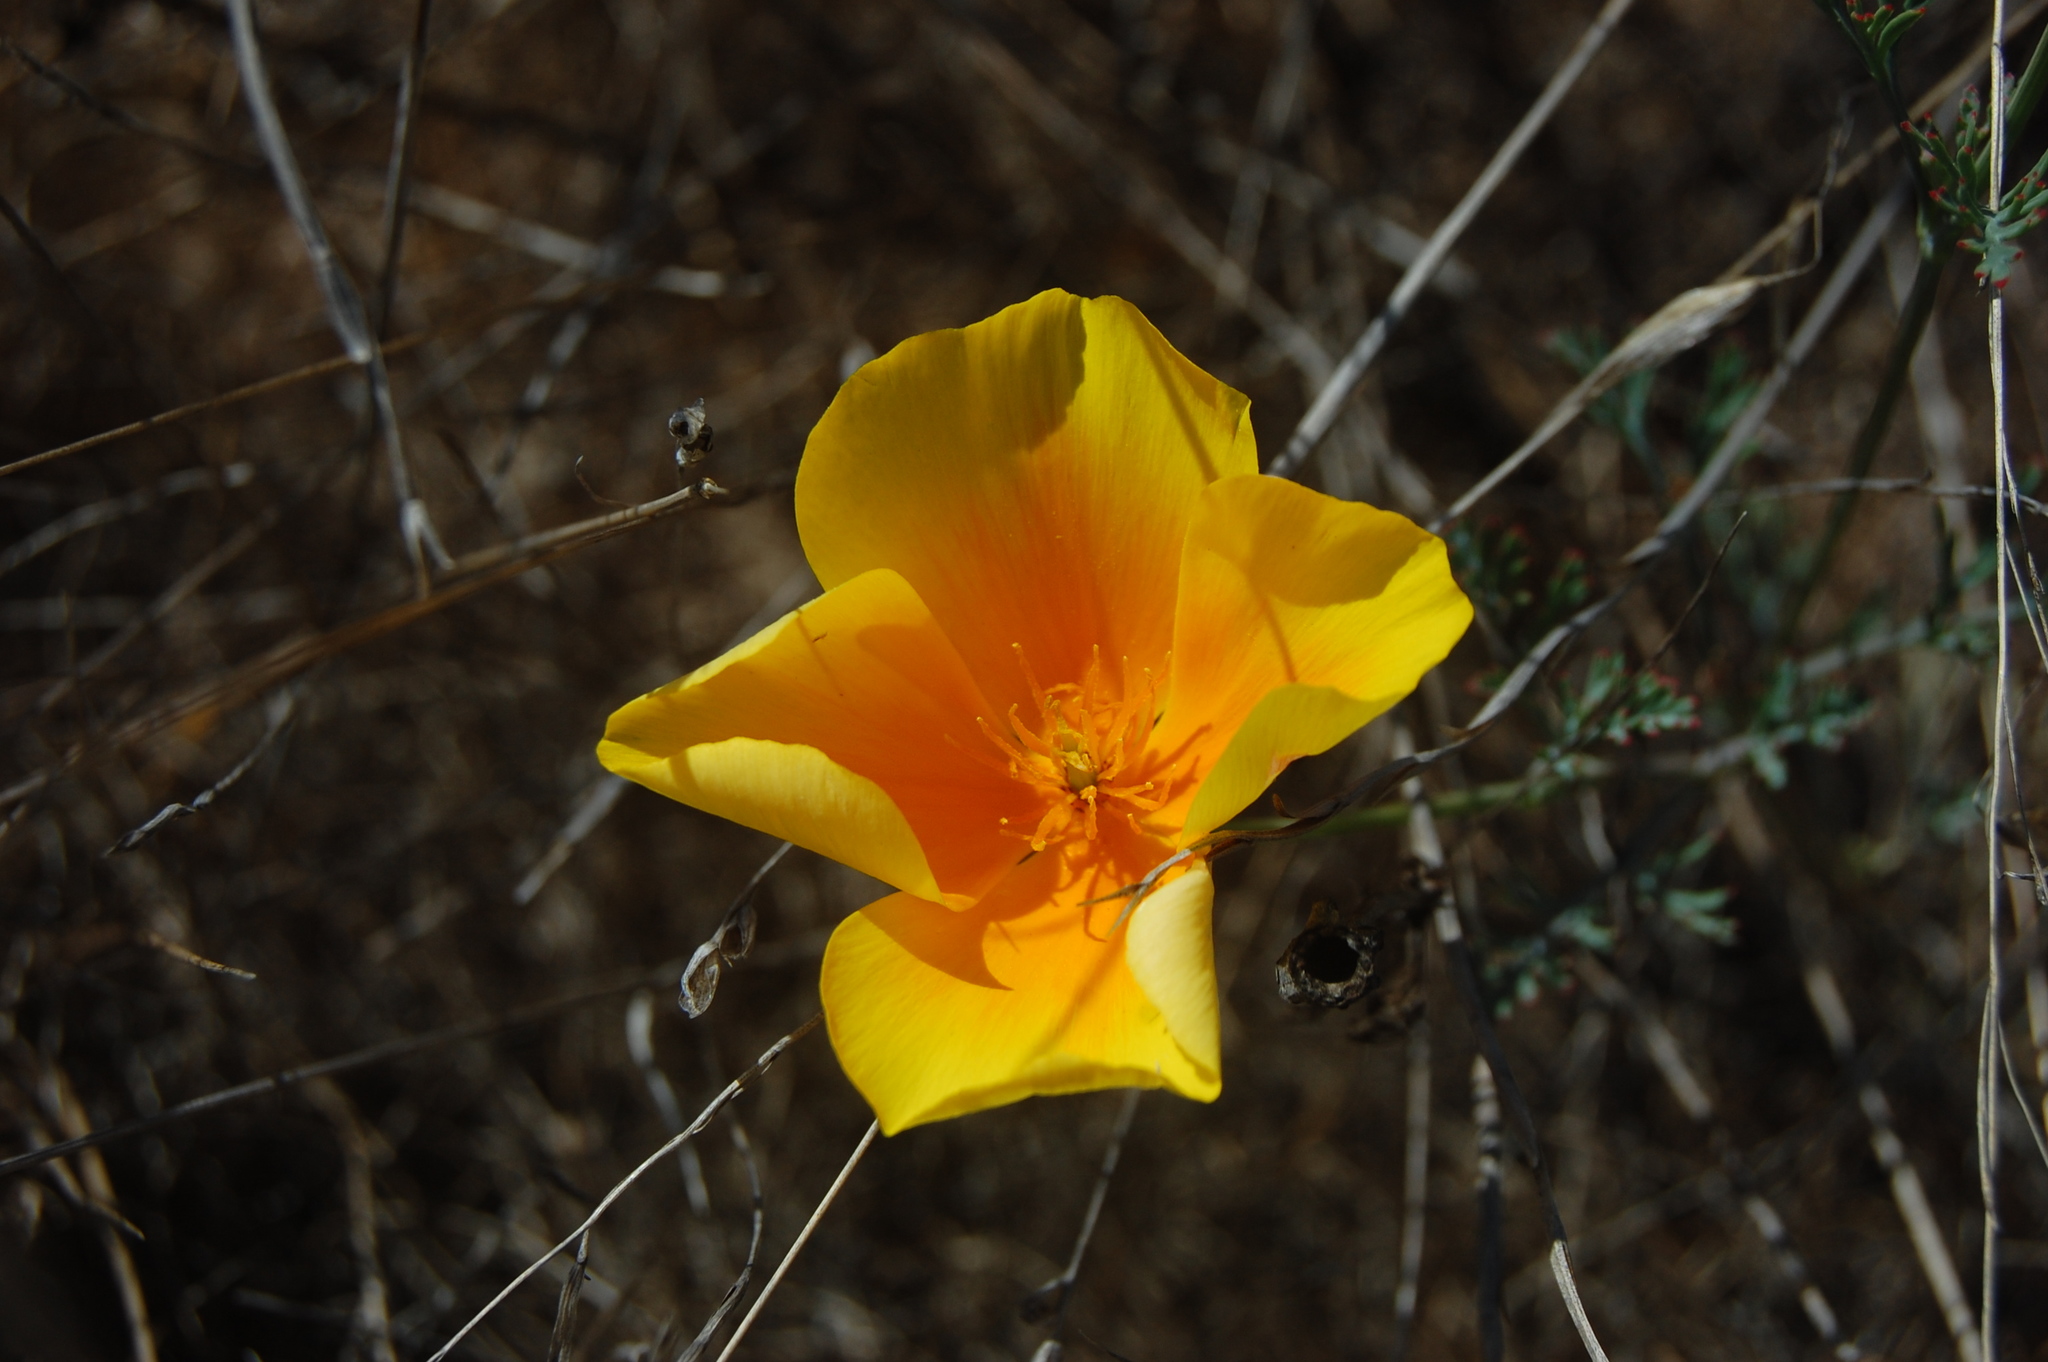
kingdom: Plantae
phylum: Tracheophyta
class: Magnoliopsida
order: Ranunculales
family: Papaveraceae
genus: Eschscholzia
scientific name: Eschscholzia californica
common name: California poppy
